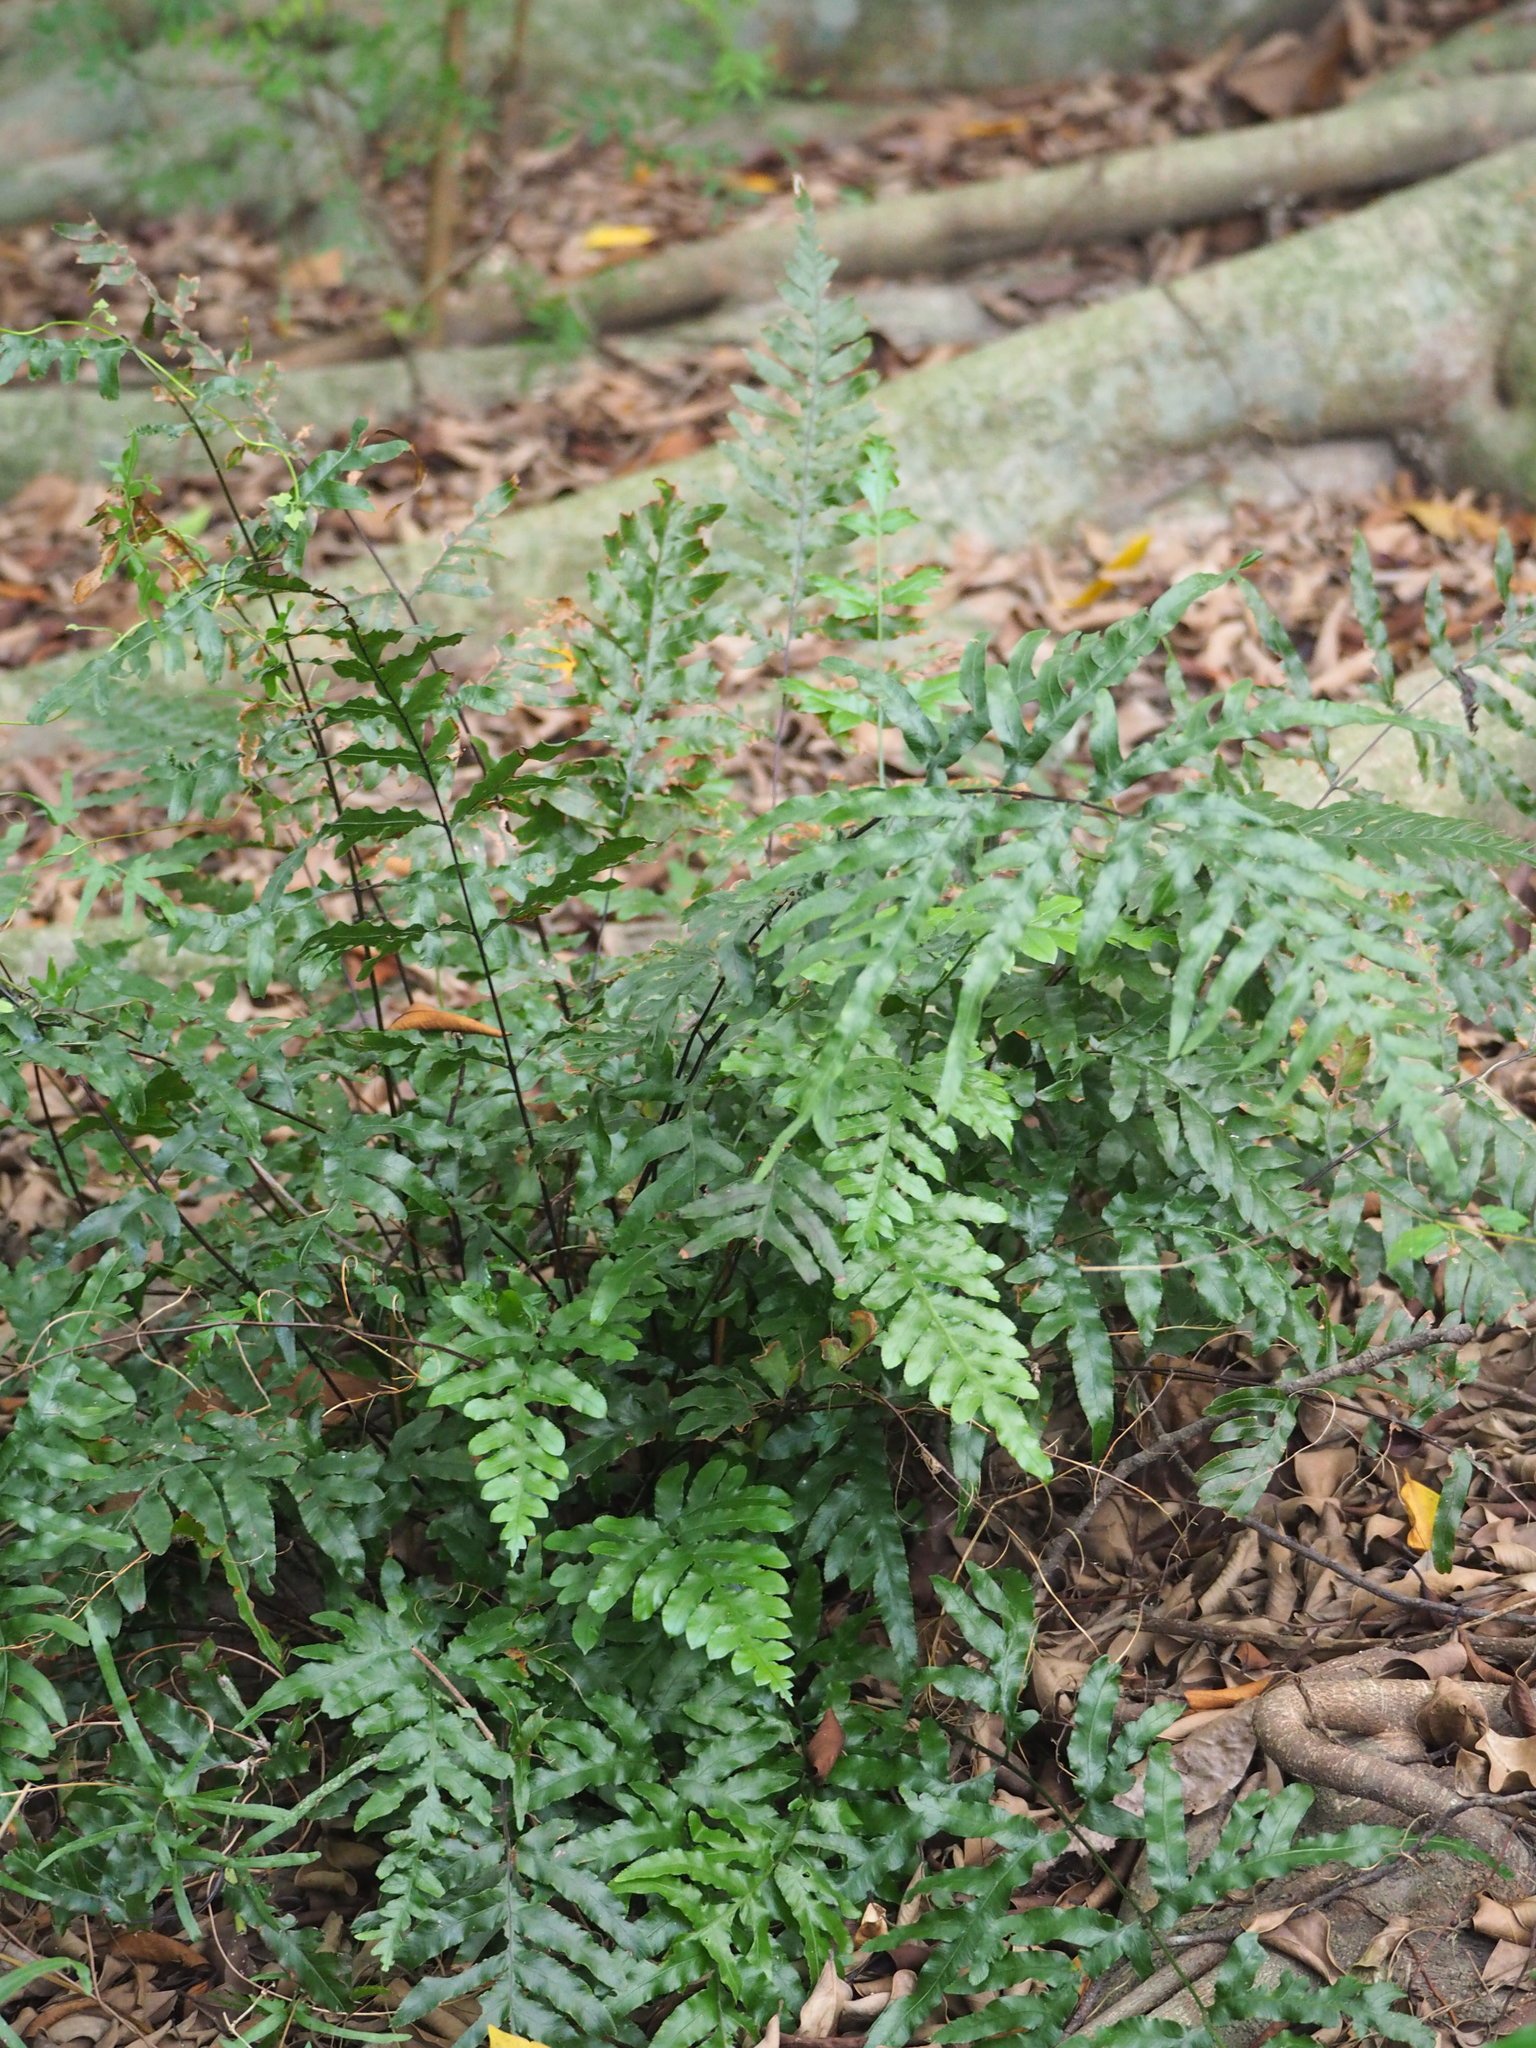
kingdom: Plantae
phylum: Tracheophyta
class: Polypodiopsida
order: Polypodiales
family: Pteridaceae
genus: Pteris
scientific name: Pteris semipinnata
